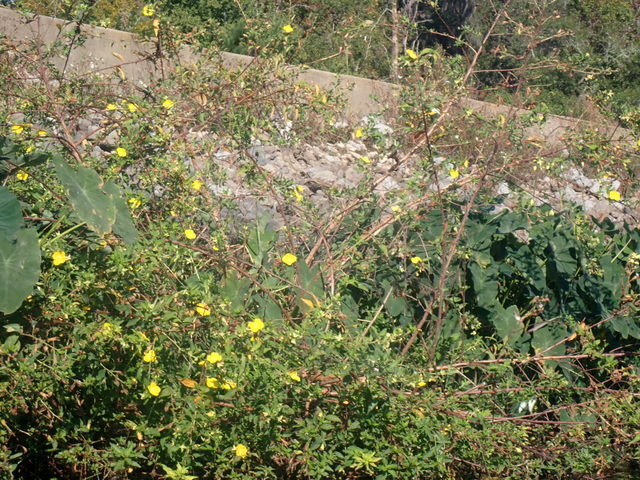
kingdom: Plantae
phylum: Tracheophyta
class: Magnoliopsida
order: Myrtales
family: Onagraceae
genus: Ludwigia
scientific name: Ludwigia peruviana
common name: Peruvian primrose-willow
